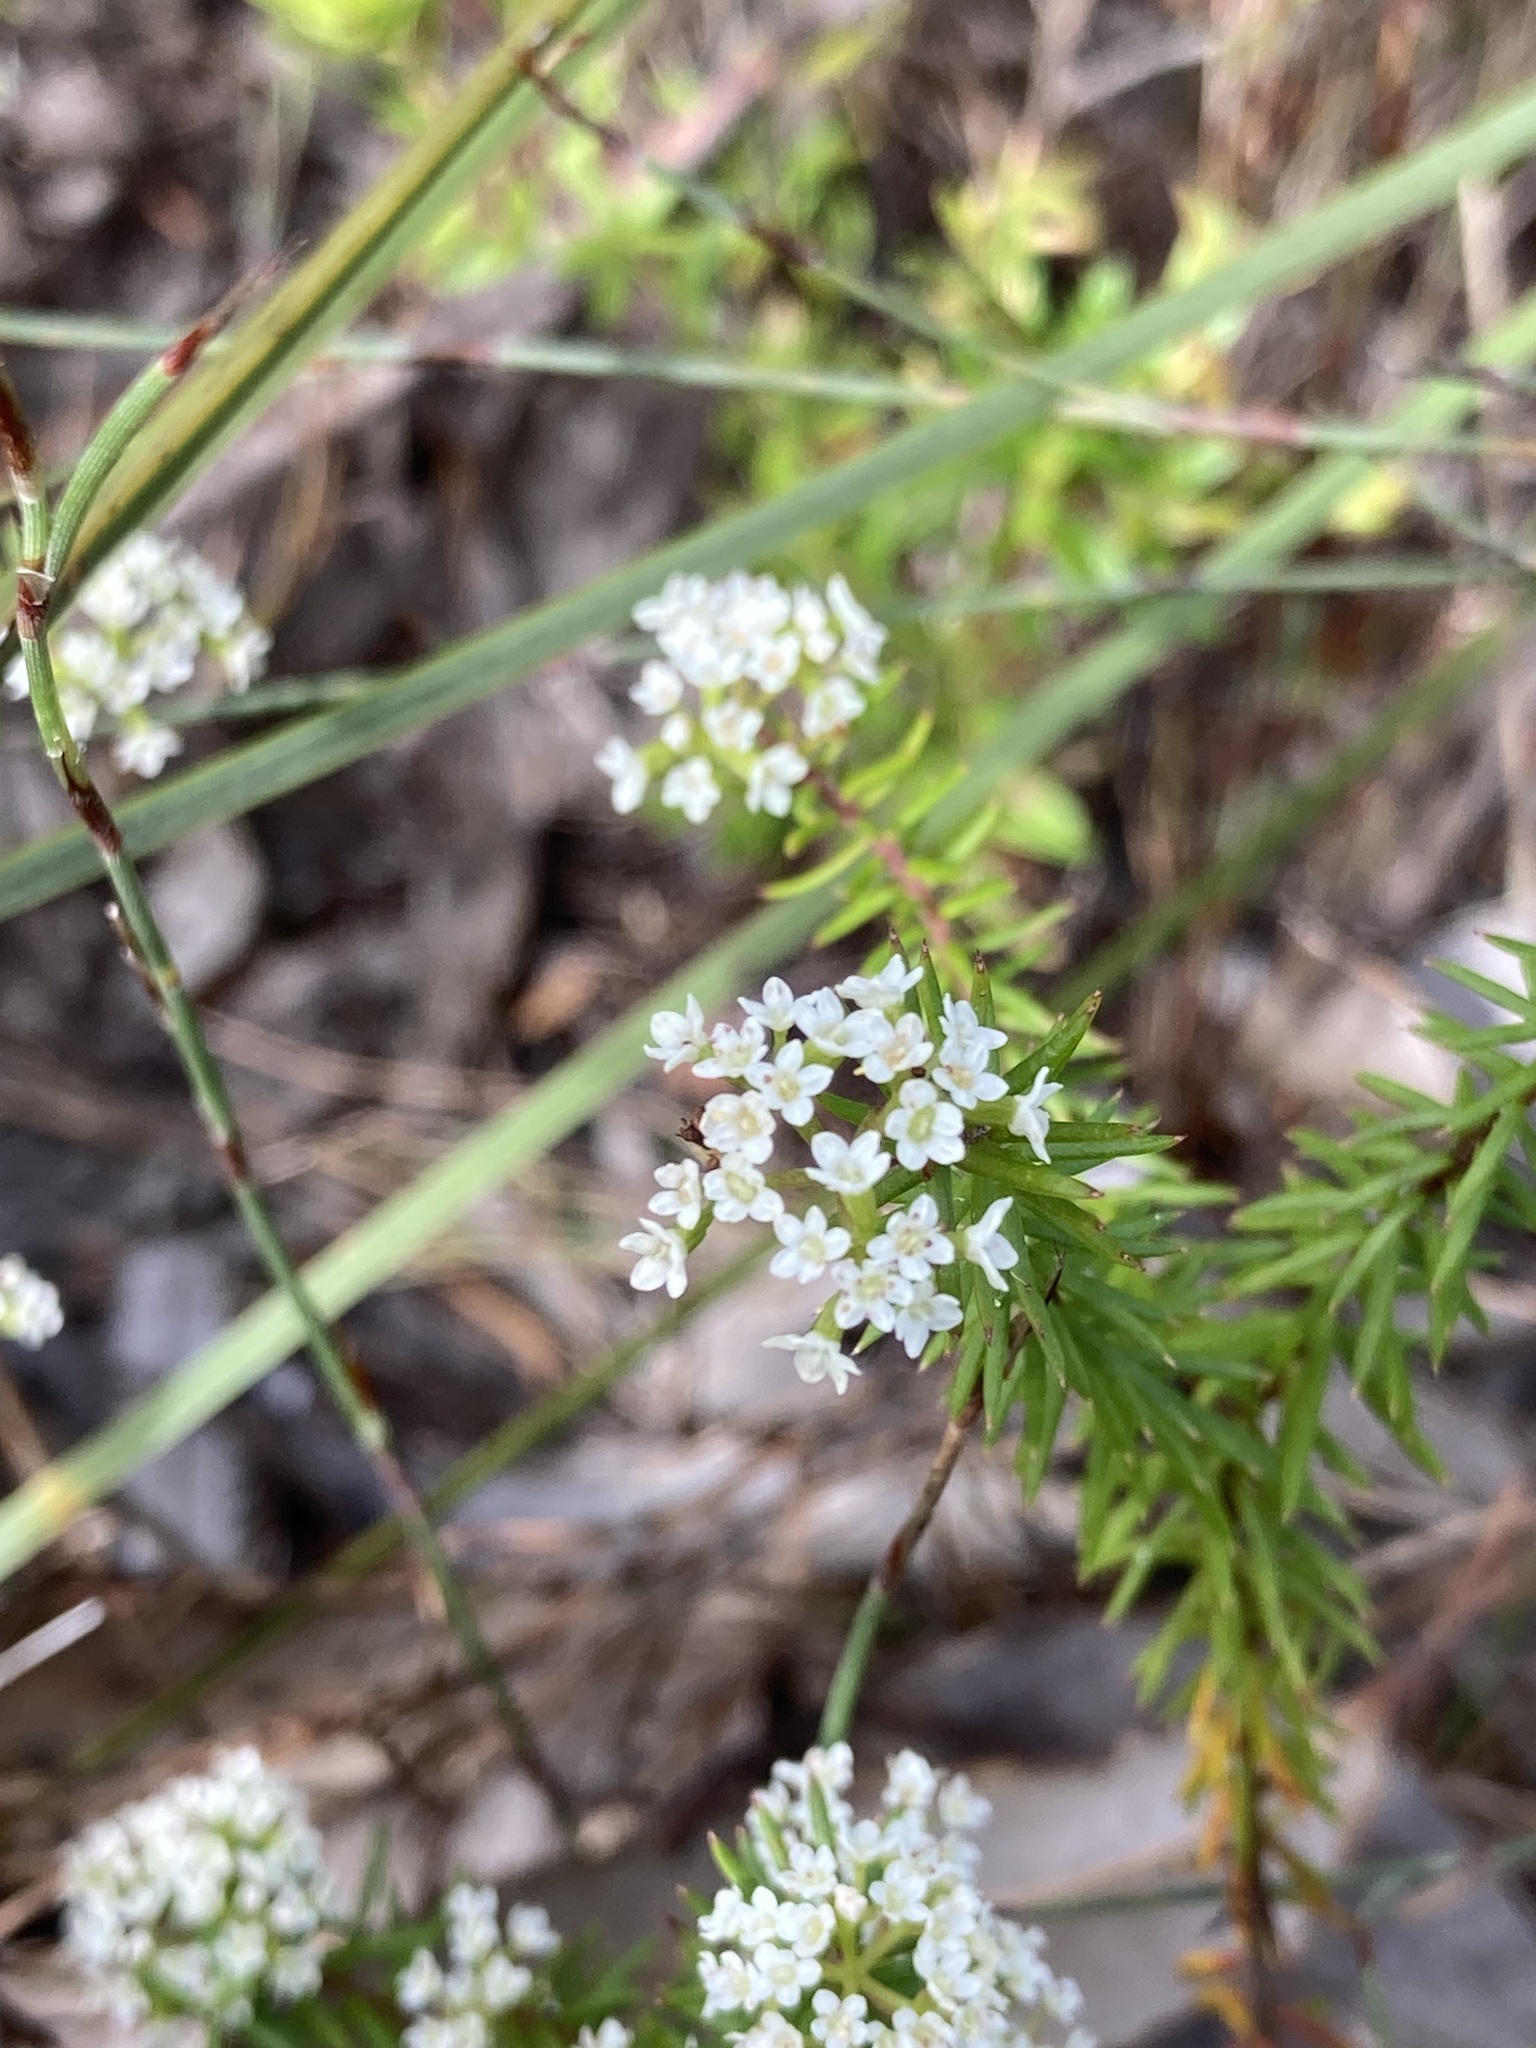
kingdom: Plantae
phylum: Tracheophyta
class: Magnoliopsida
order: Apiales
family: Apiaceae
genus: Platysace
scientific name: Platysace ericoides
